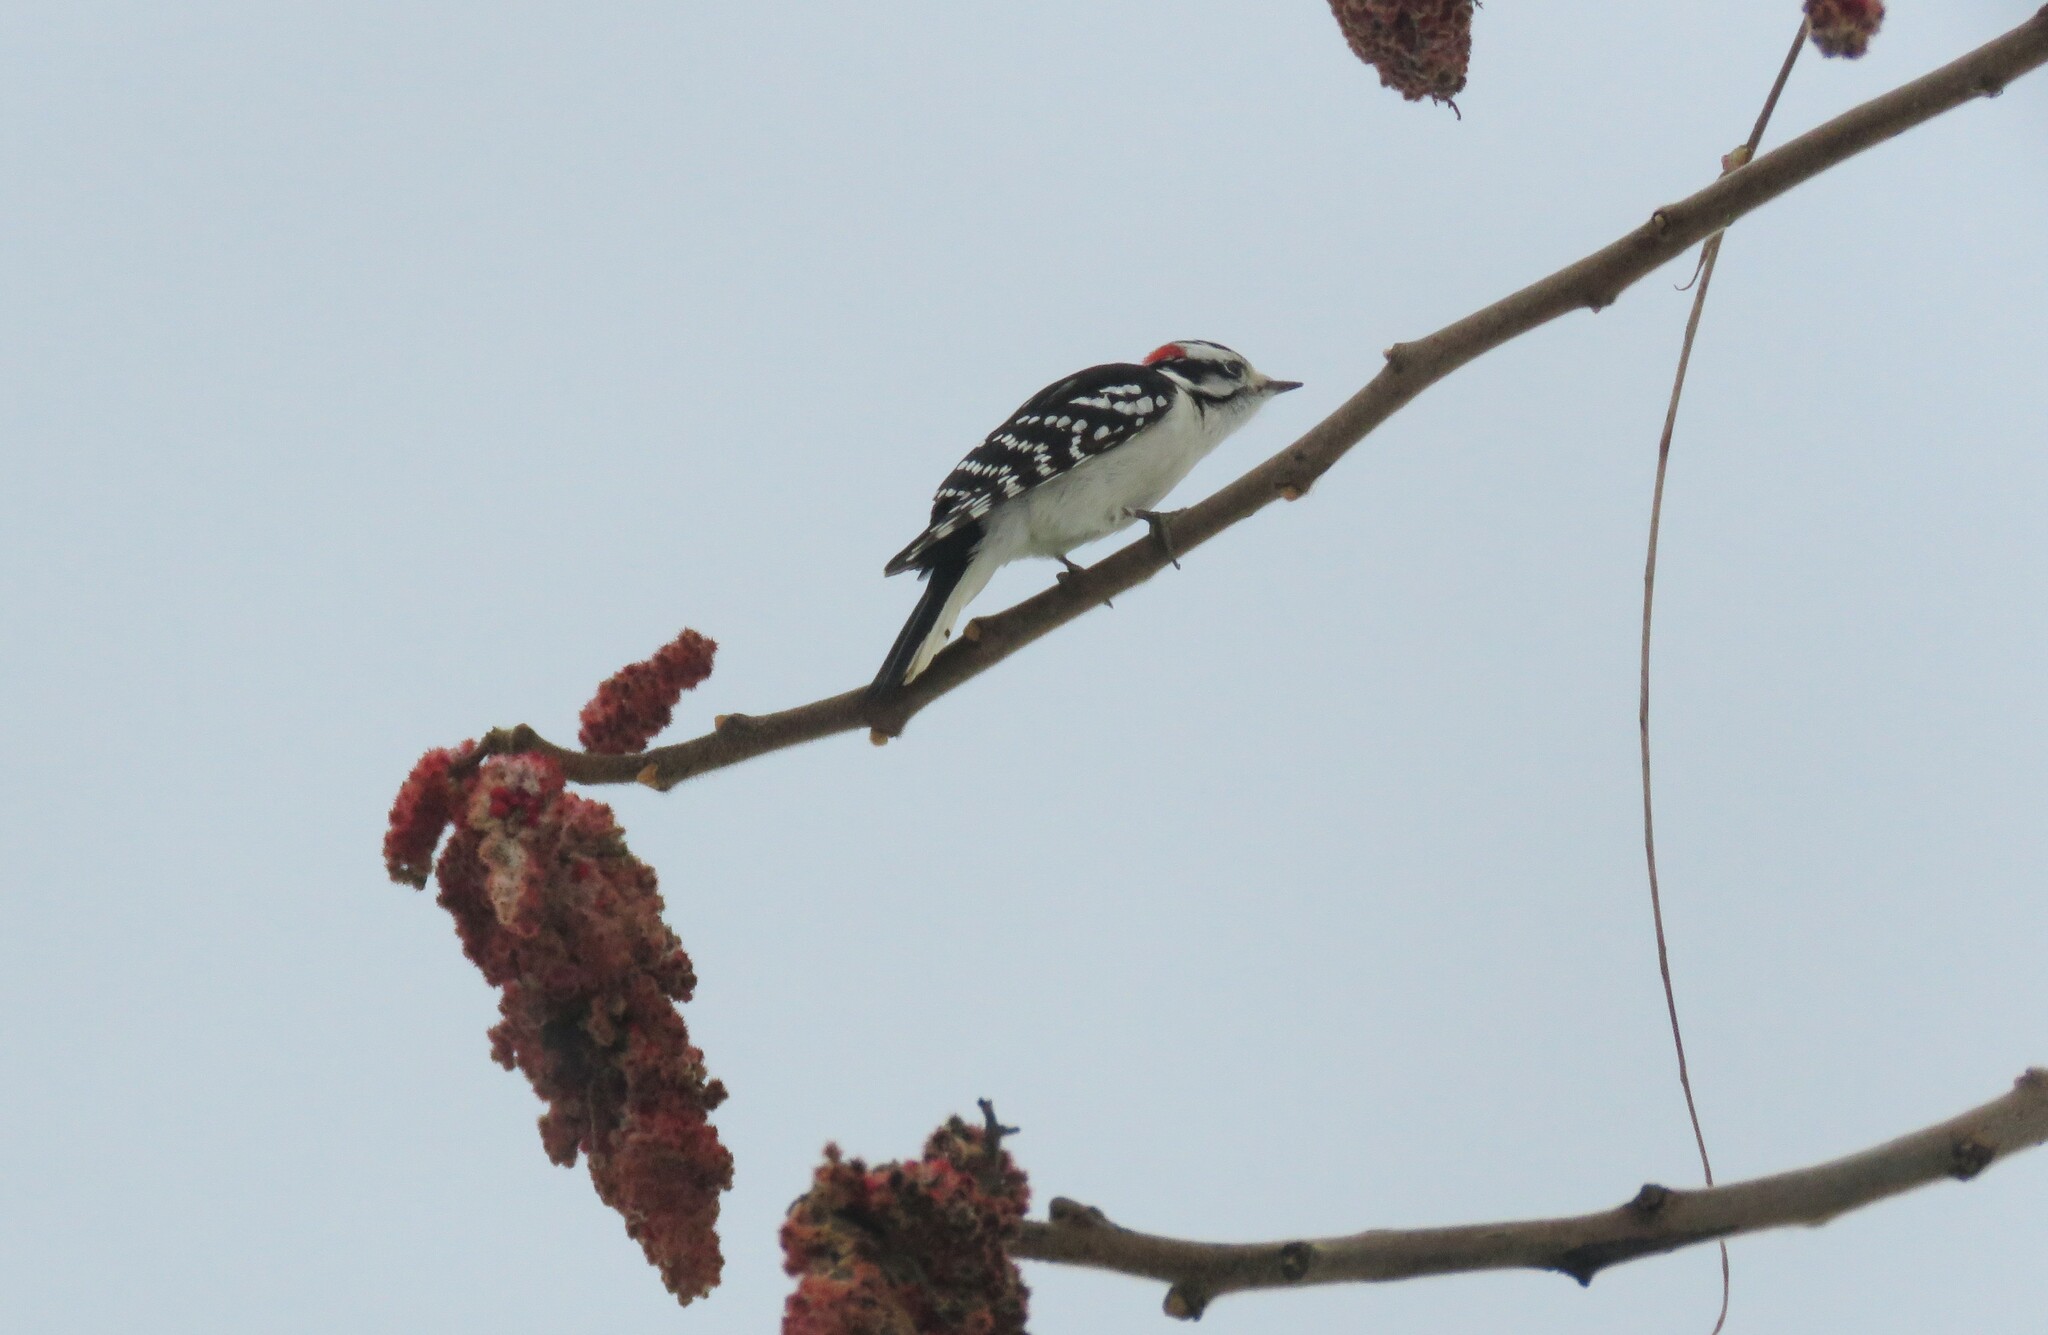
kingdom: Animalia
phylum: Chordata
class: Aves
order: Piciformes
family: Picidae
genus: Dryobates
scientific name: Dryobates pubescens
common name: Downy woodpecker
